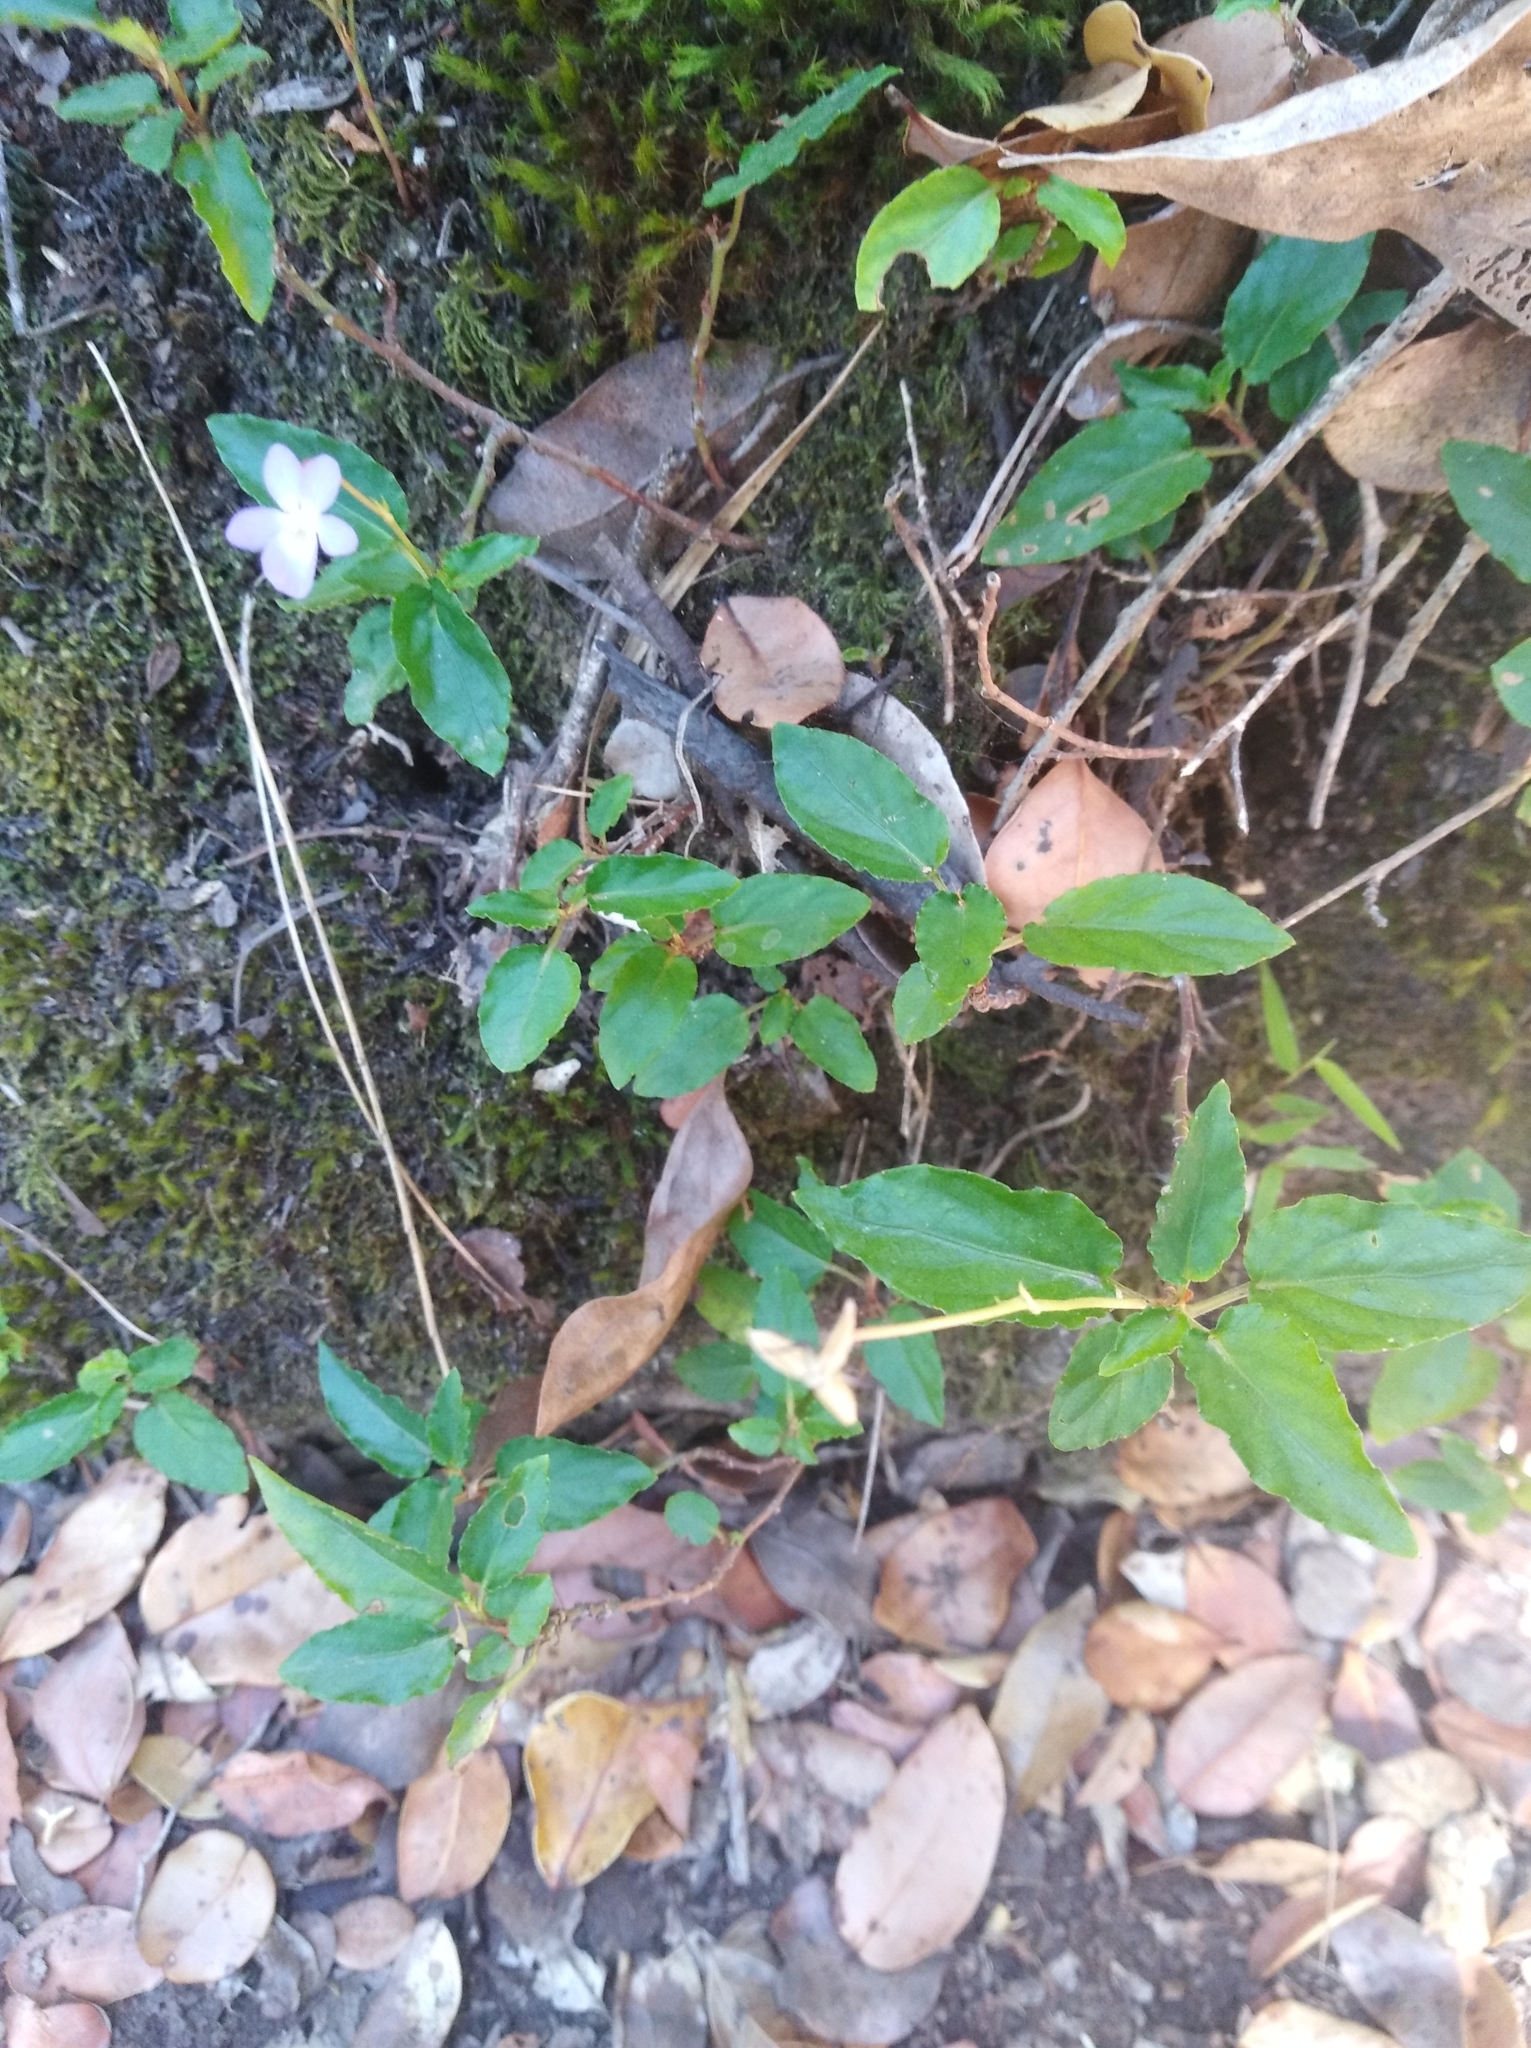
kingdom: Plantae
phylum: Tracheophyta
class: Magnoliopsida
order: Malpighiales
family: Violaceae
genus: Viola
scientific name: Viola portalesia
